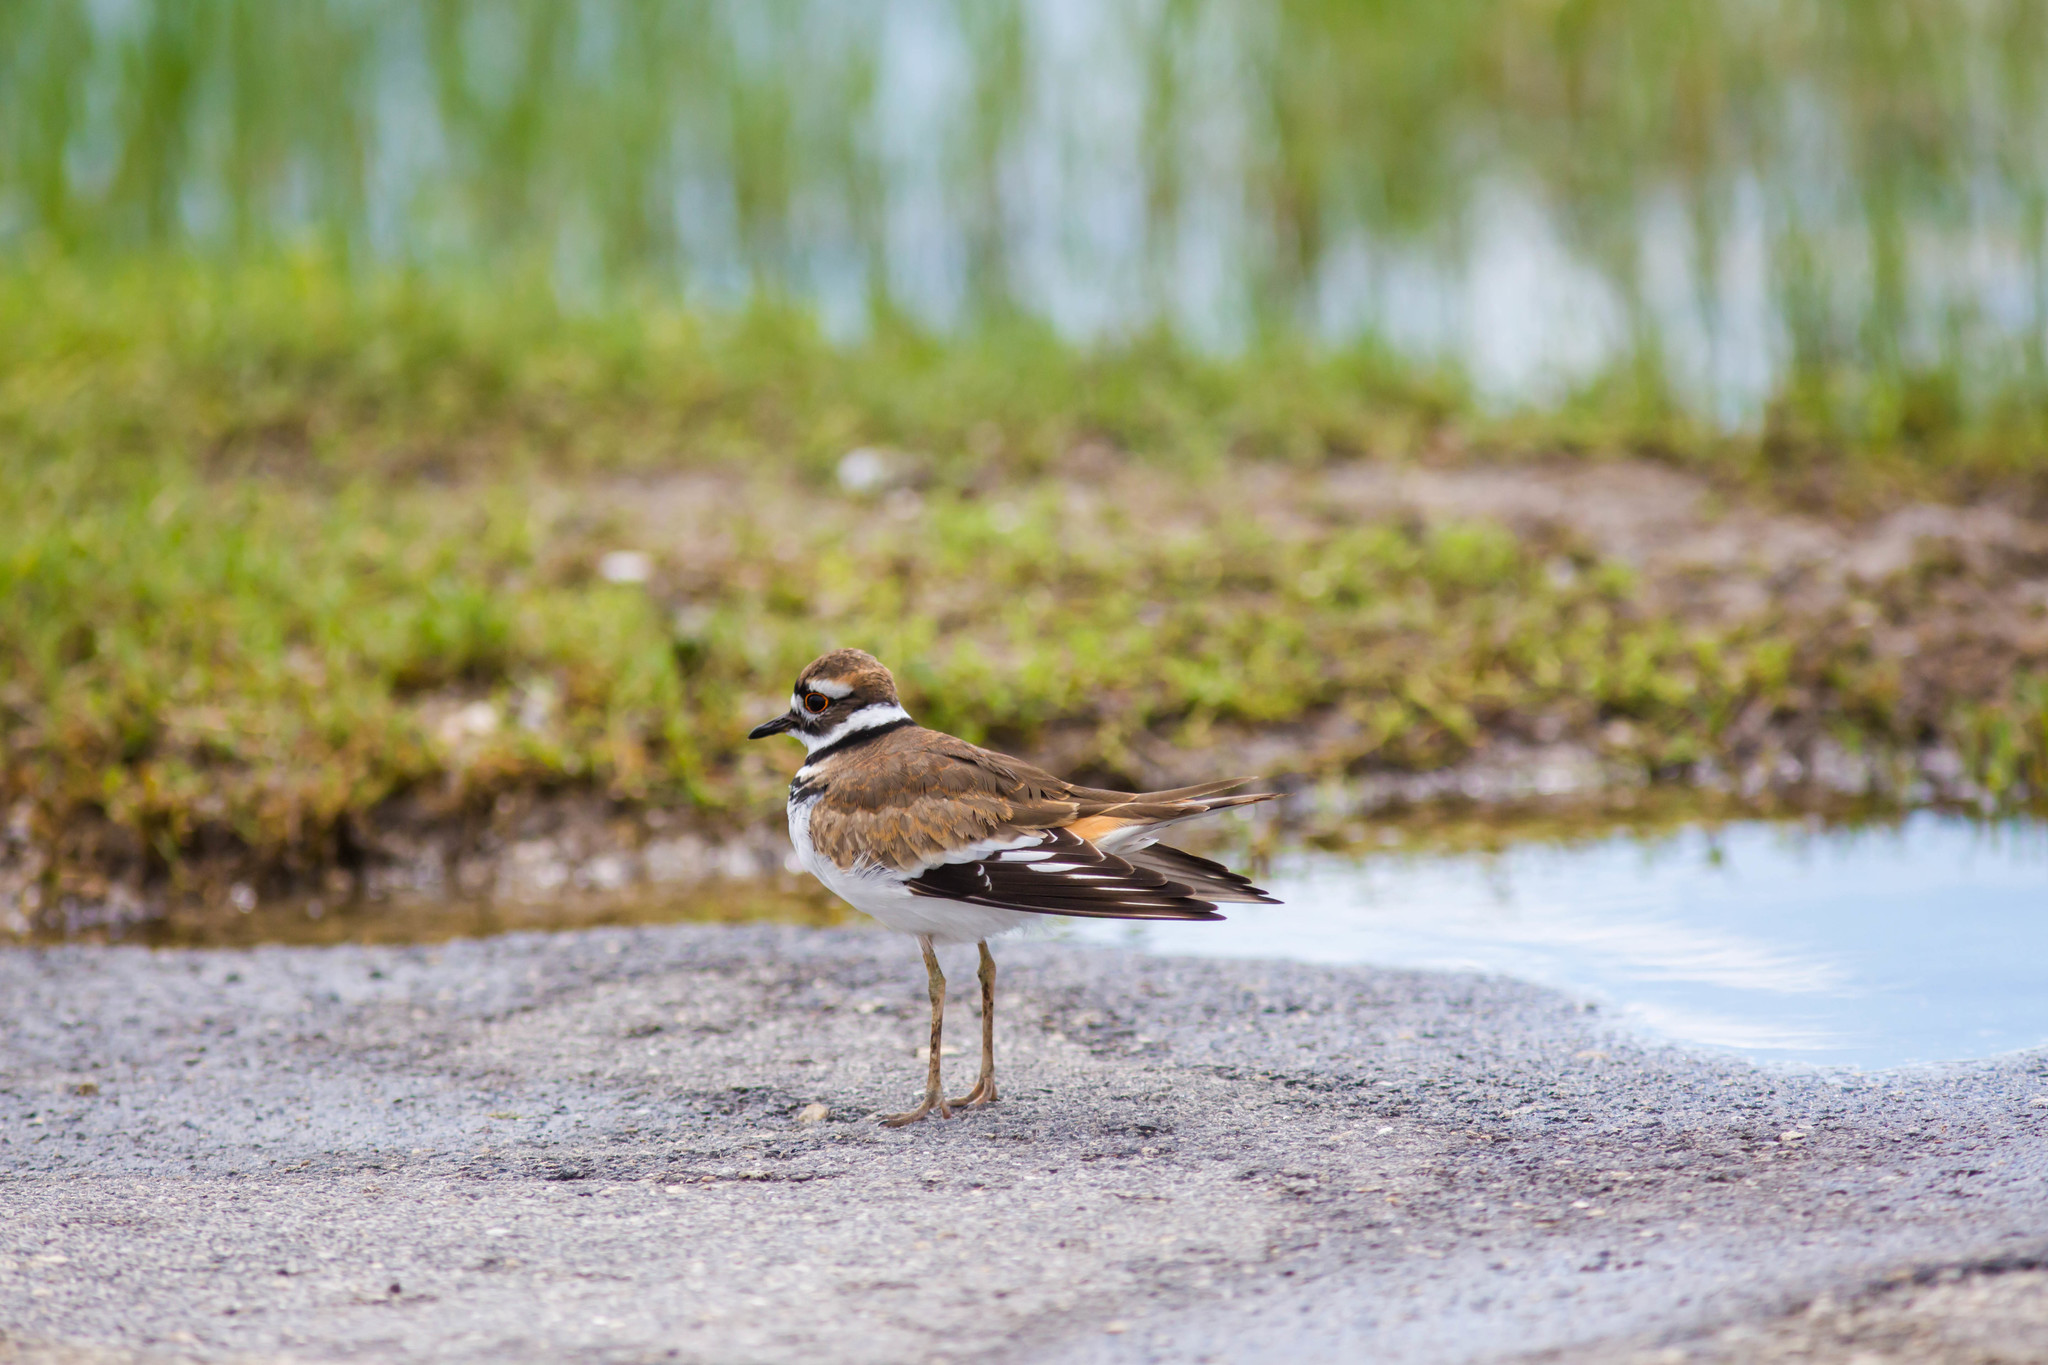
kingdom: Animalia
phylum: Chordata
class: Aves
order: Charadriiformes
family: Charadriidae
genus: Charadrius
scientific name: Charadrius vociferus
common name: Killdeer
